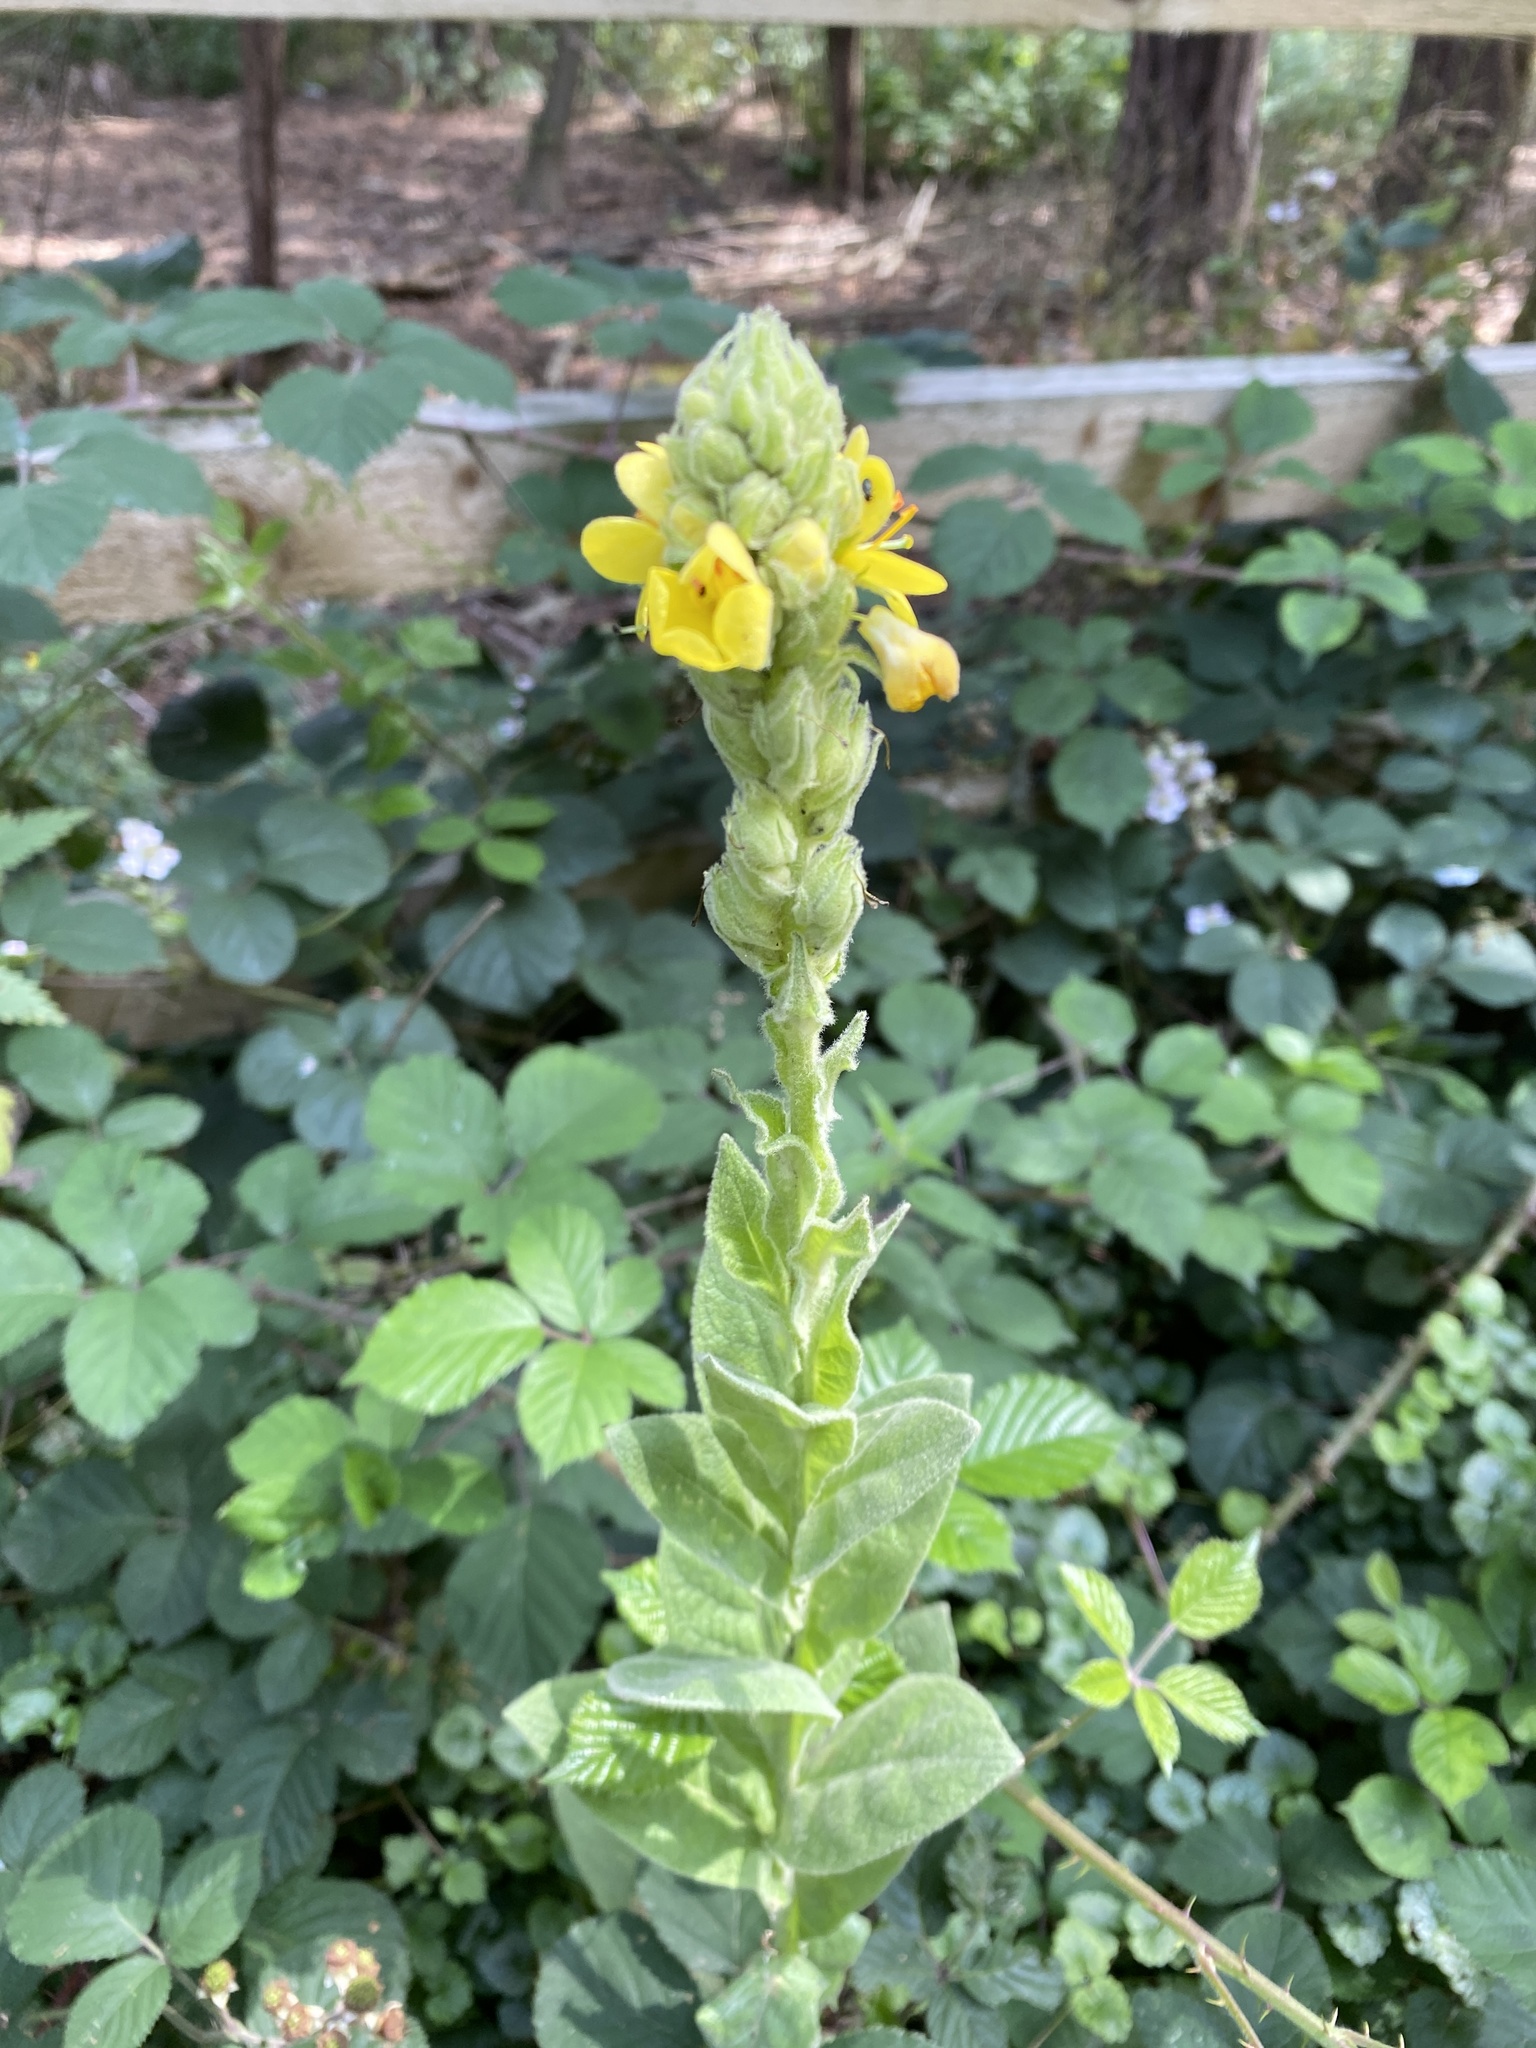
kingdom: Plantae
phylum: Tracheophyta
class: Magnoliopsida
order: Lamiales
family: Scrophulariaceae
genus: Verbascum
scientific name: Verbascum thapsus
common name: Common mullein
